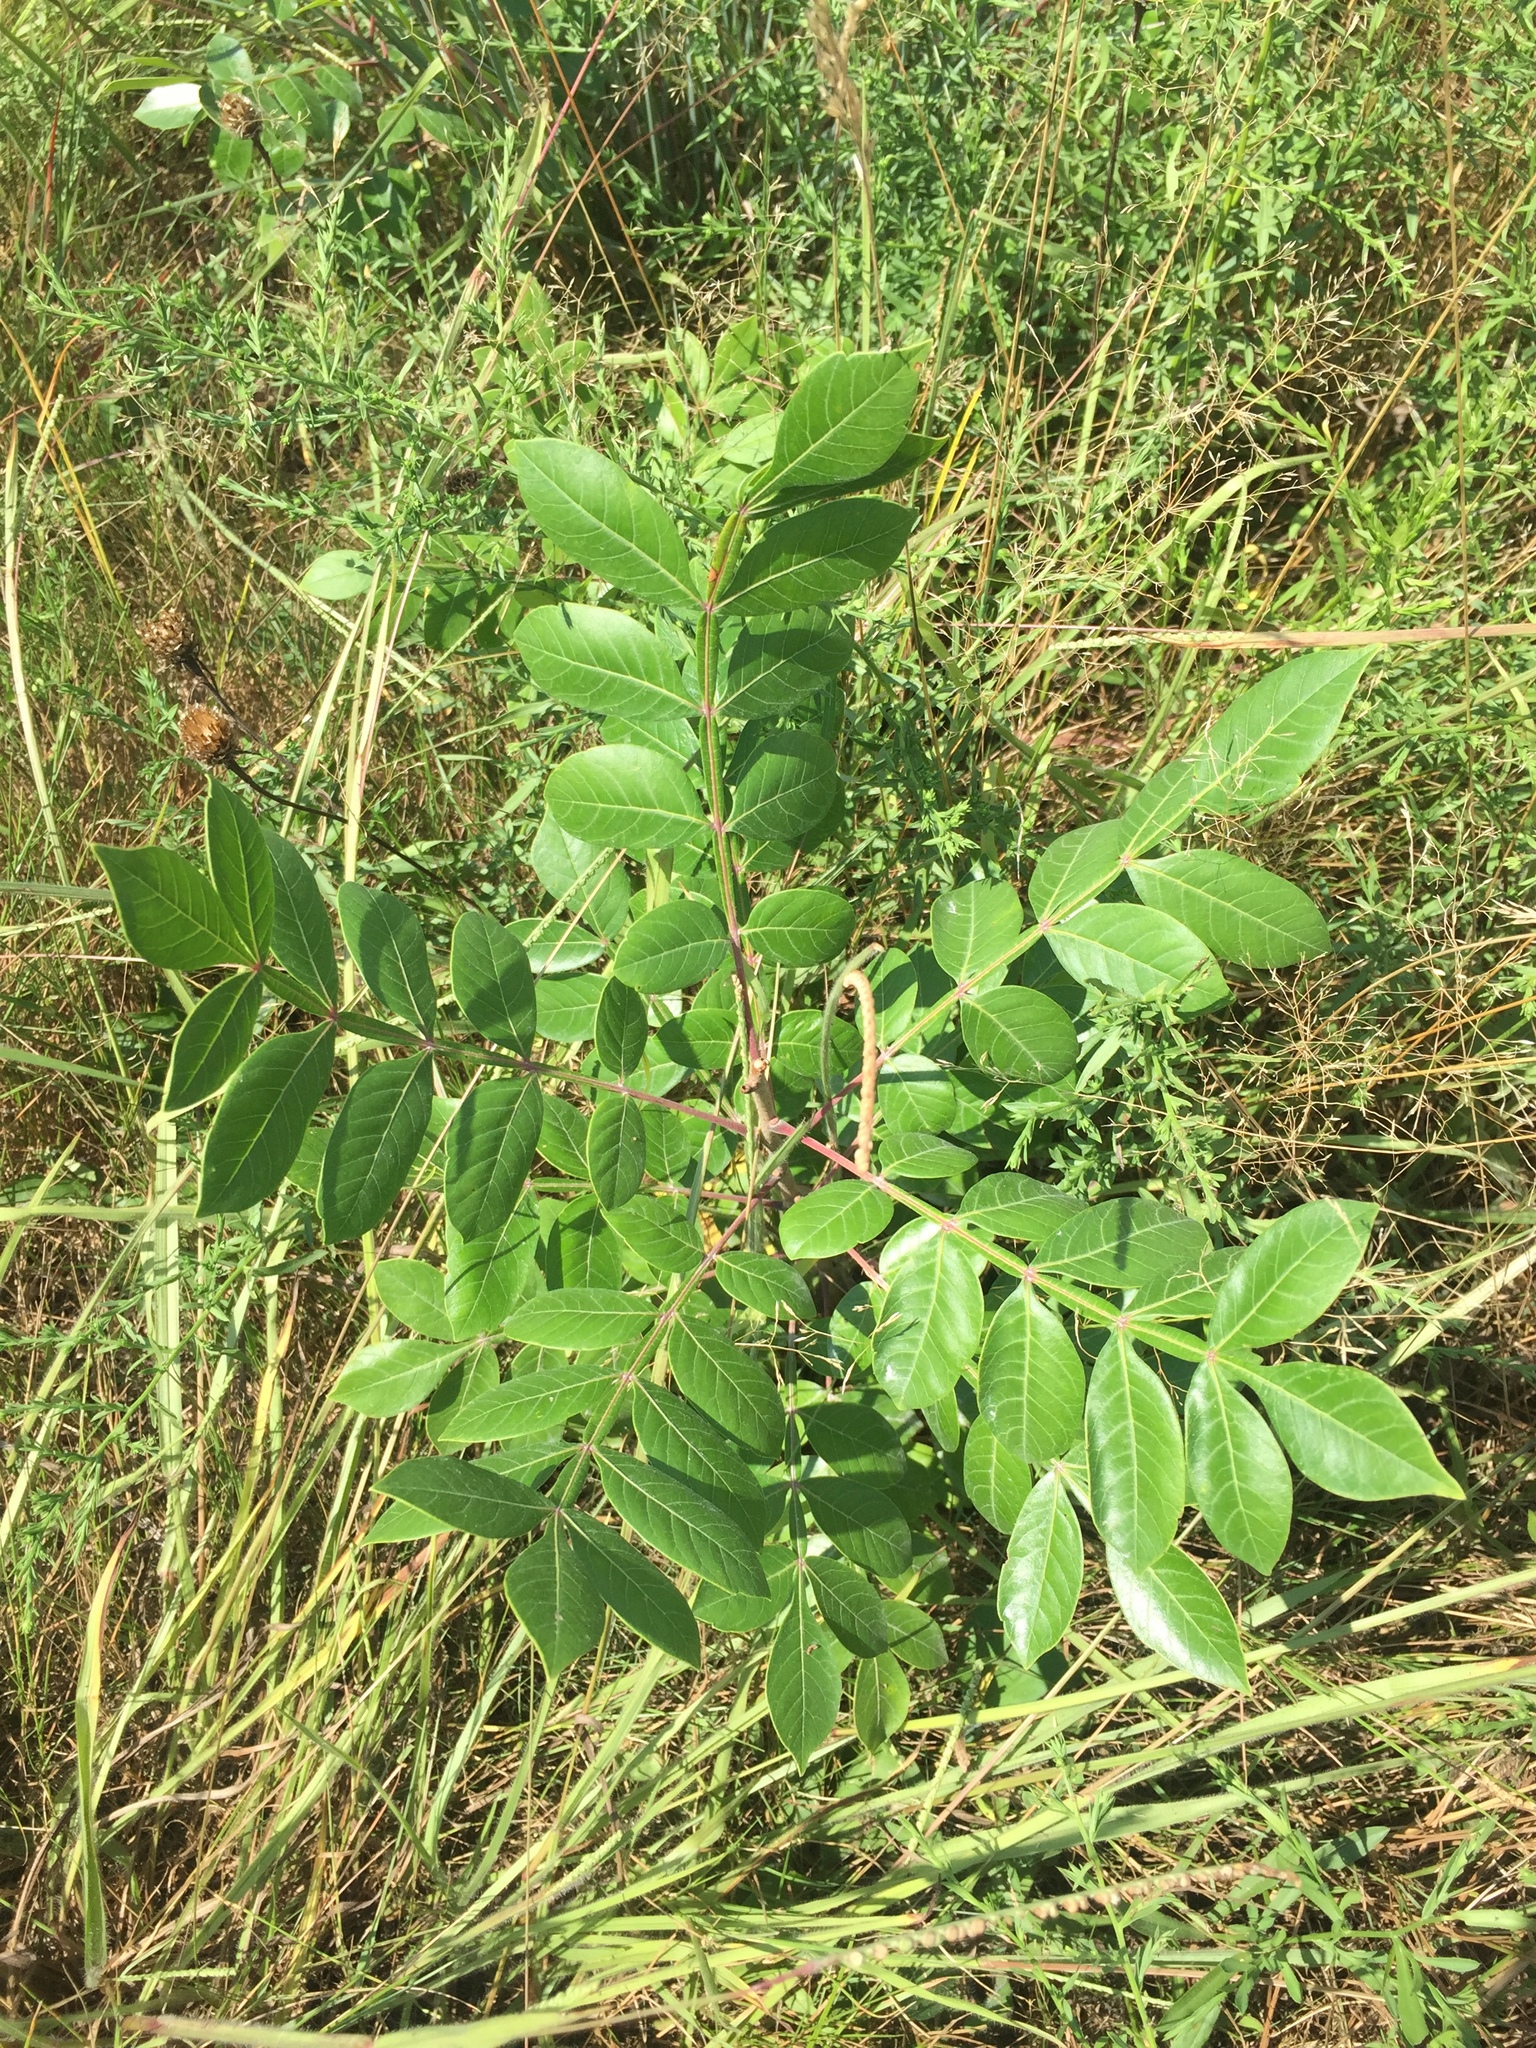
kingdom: Plantae
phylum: Tracheophyta
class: Magnoliopsida
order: Sapindales
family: Anacardiaceae
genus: Rhus
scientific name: Rhus copallina
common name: Shining sumac
